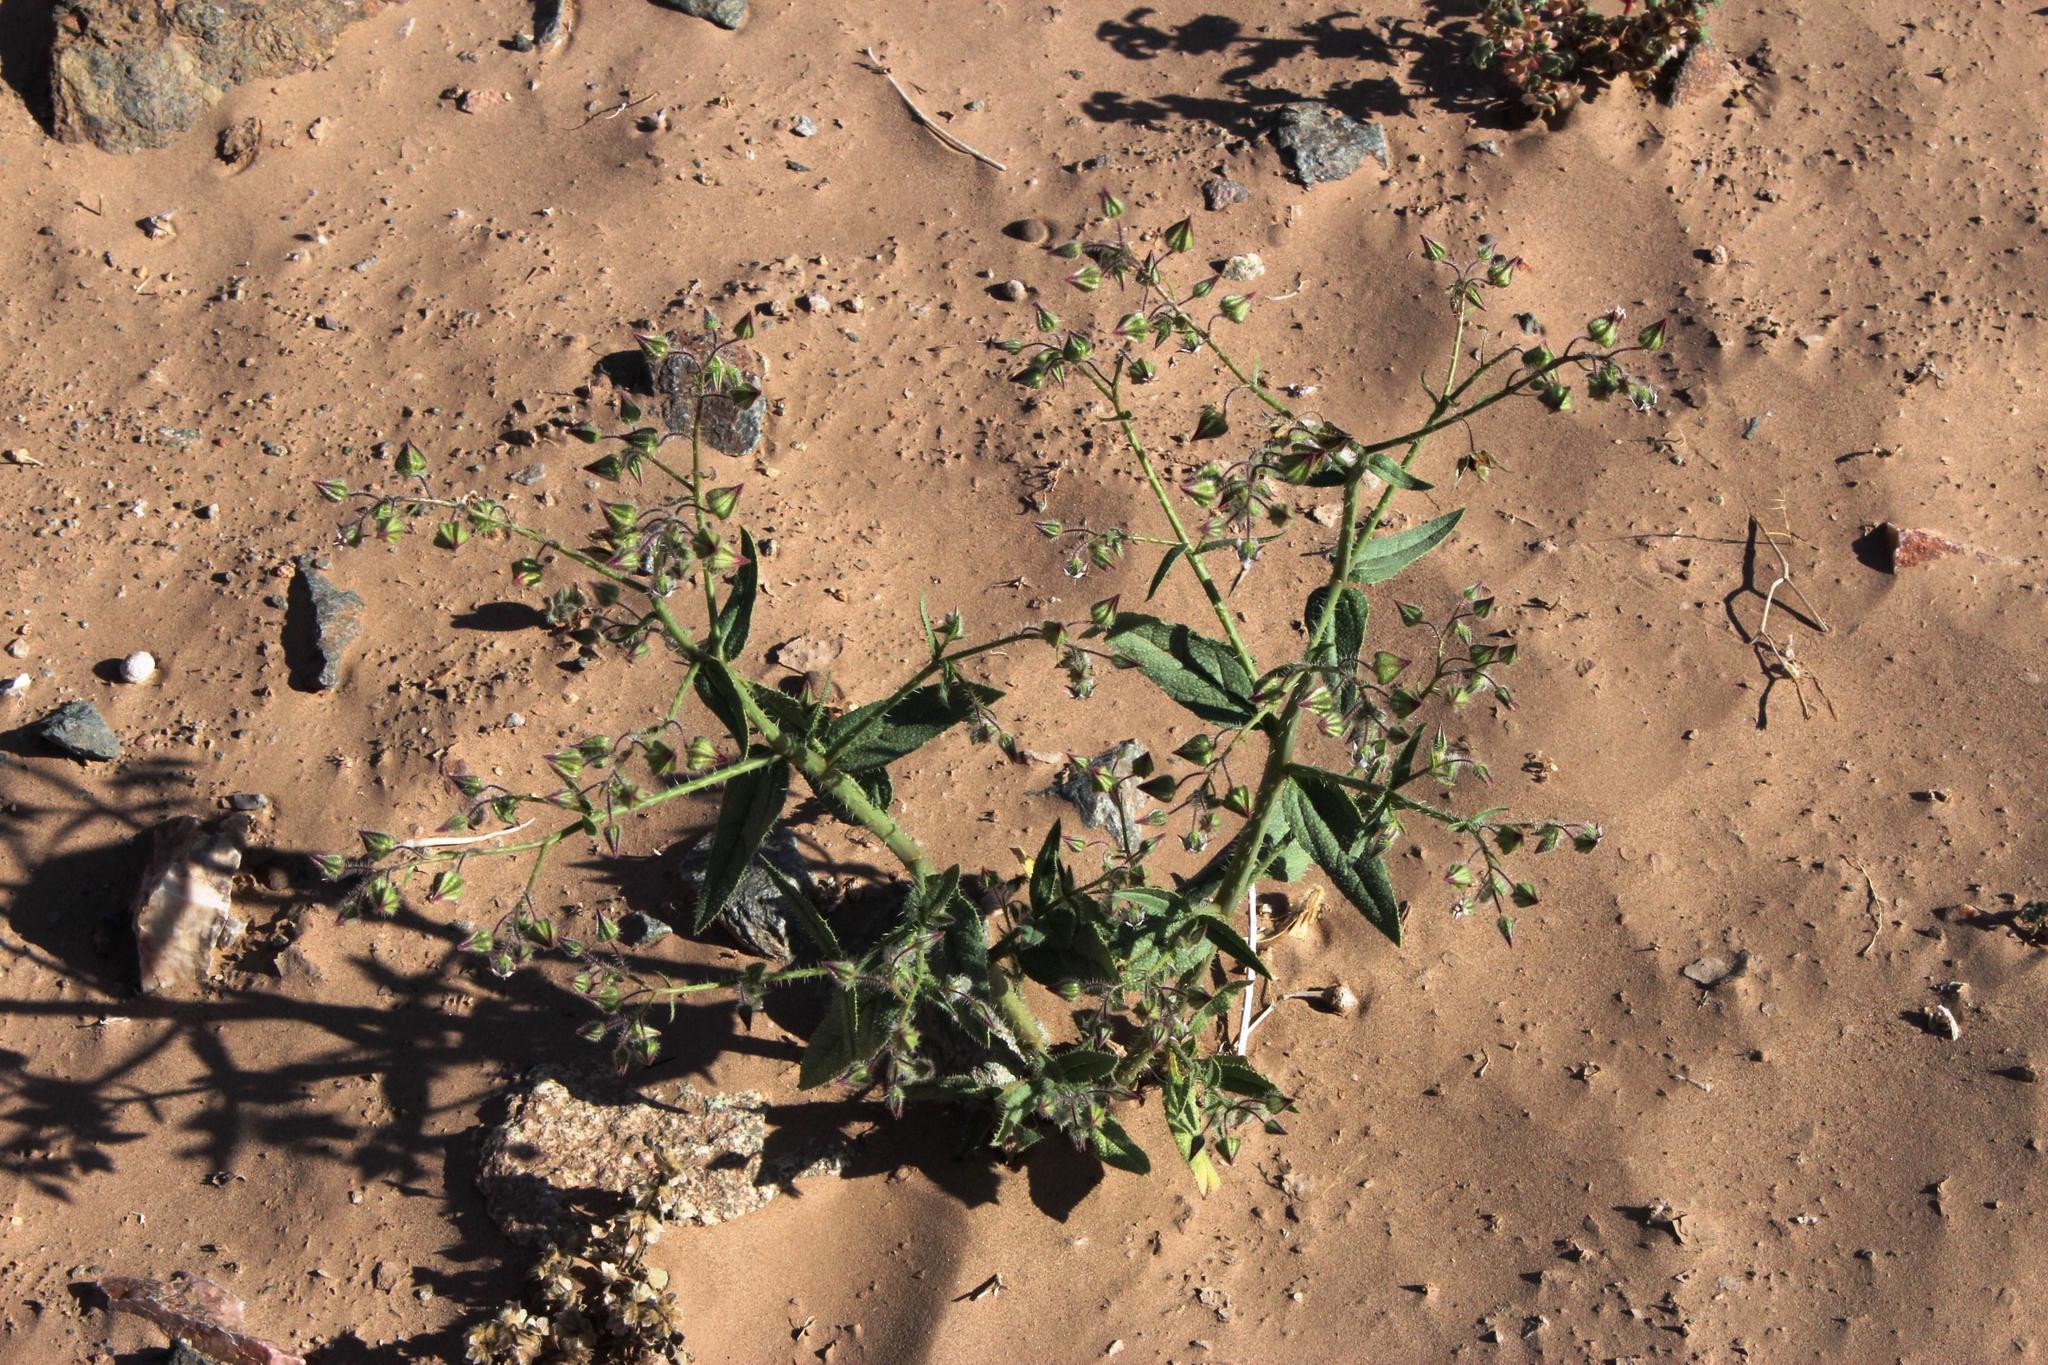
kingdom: Plantae
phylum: Tracheophyta
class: Magnoliopsida
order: Boraginales
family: Boraginaceae
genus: Trichodesma
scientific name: Trichodesma africanum
